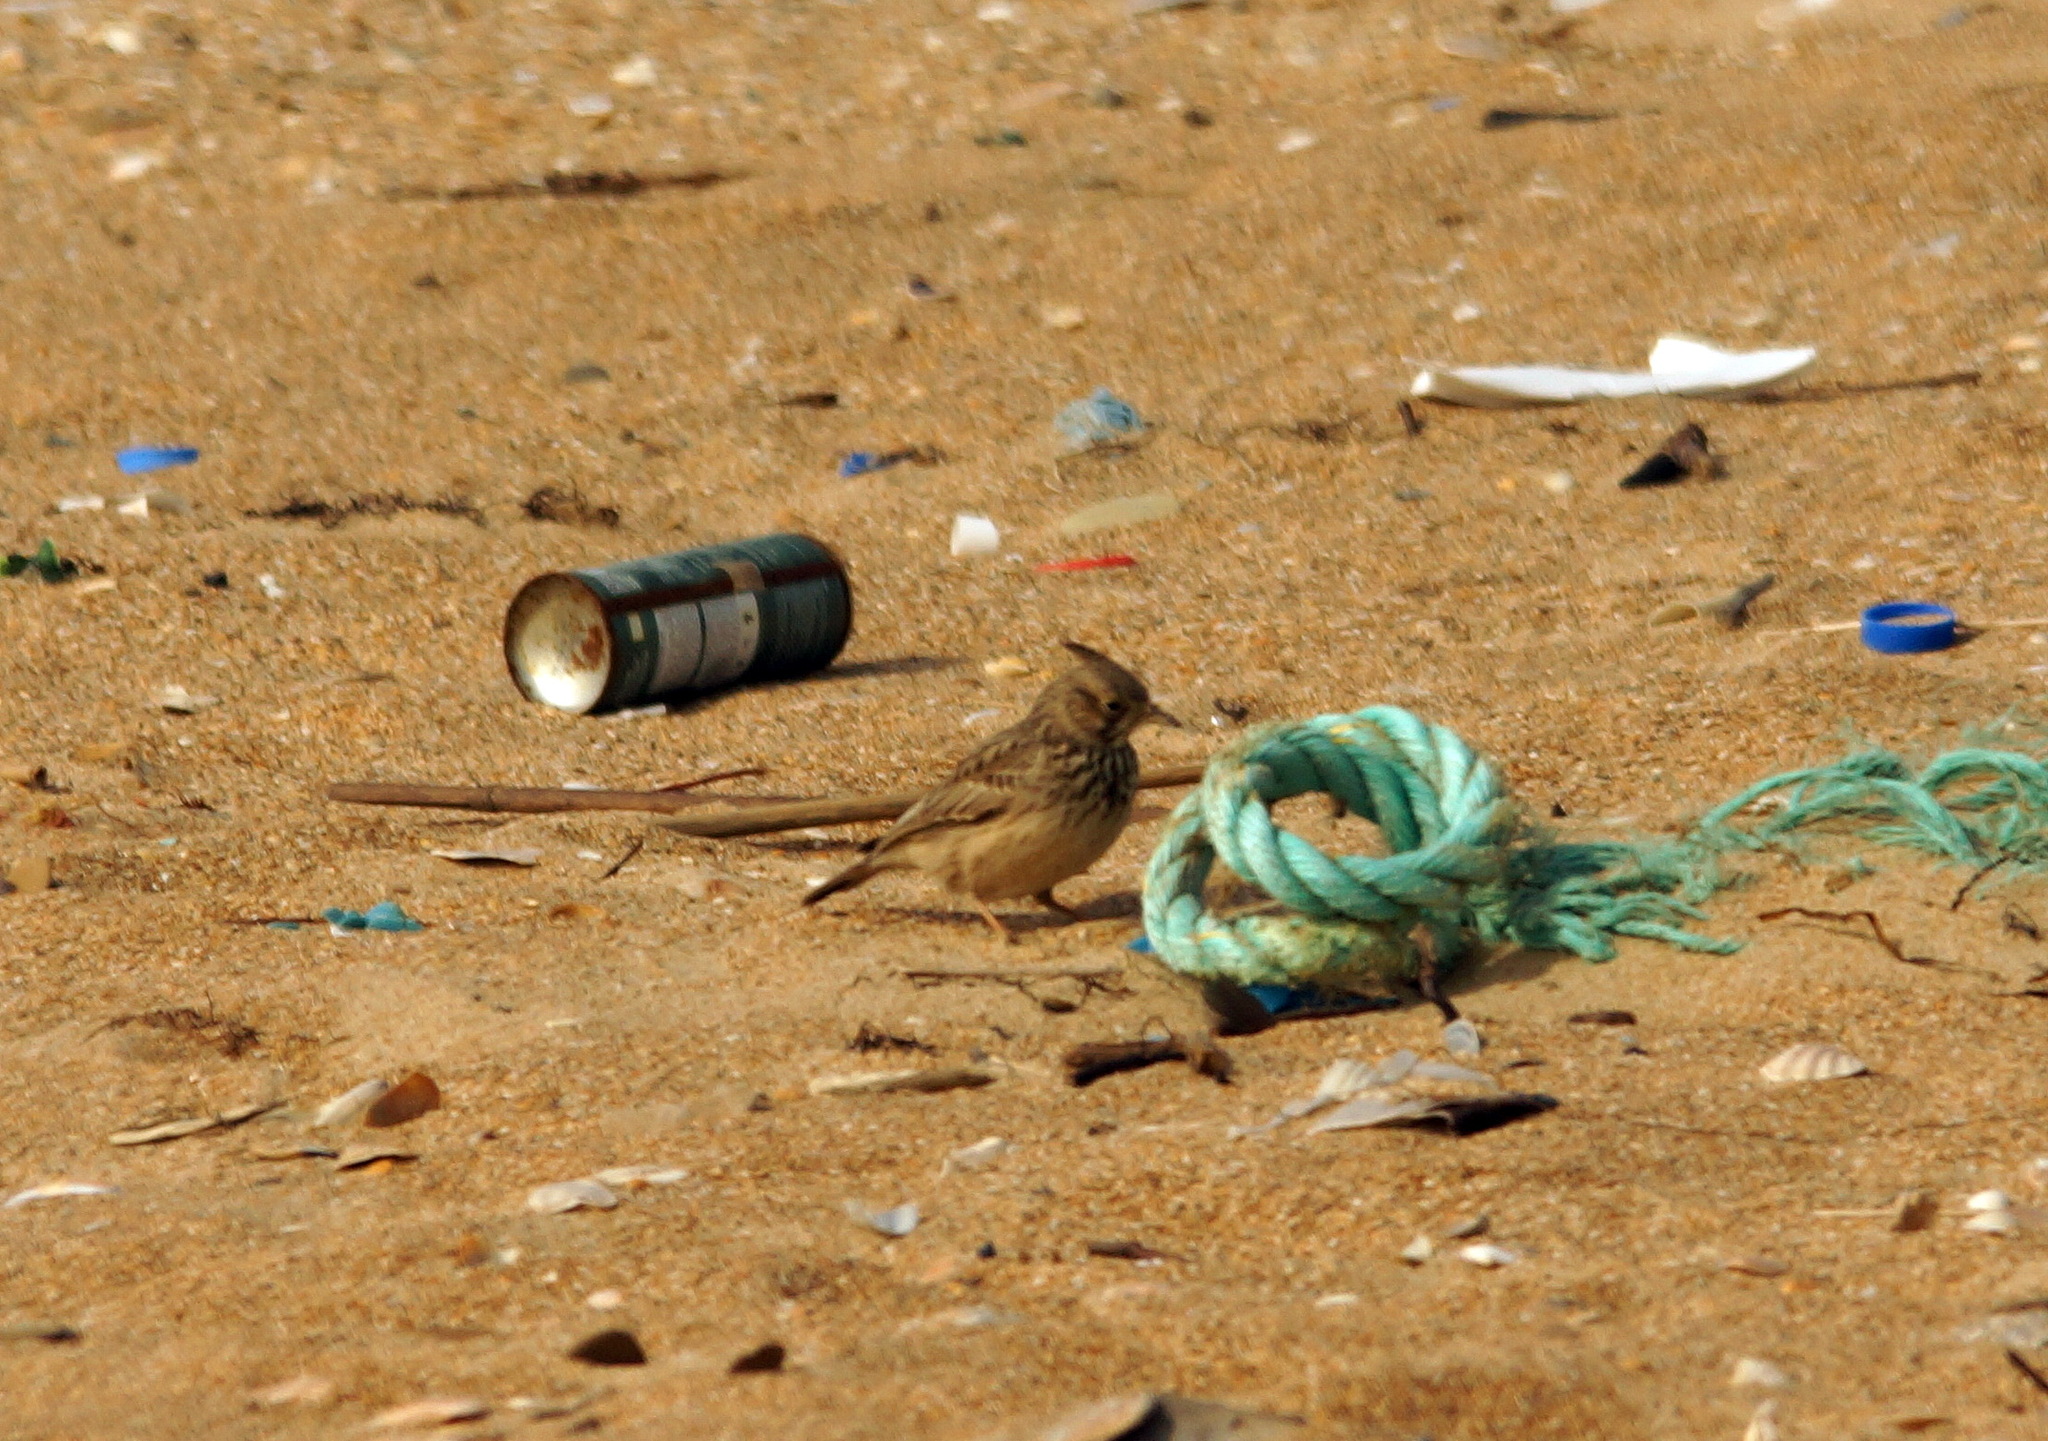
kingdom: Animalia
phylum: Chordata
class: Aves
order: Passeriformes
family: Alaudidae
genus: Galerida
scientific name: Galerida cristata
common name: Crested lark
